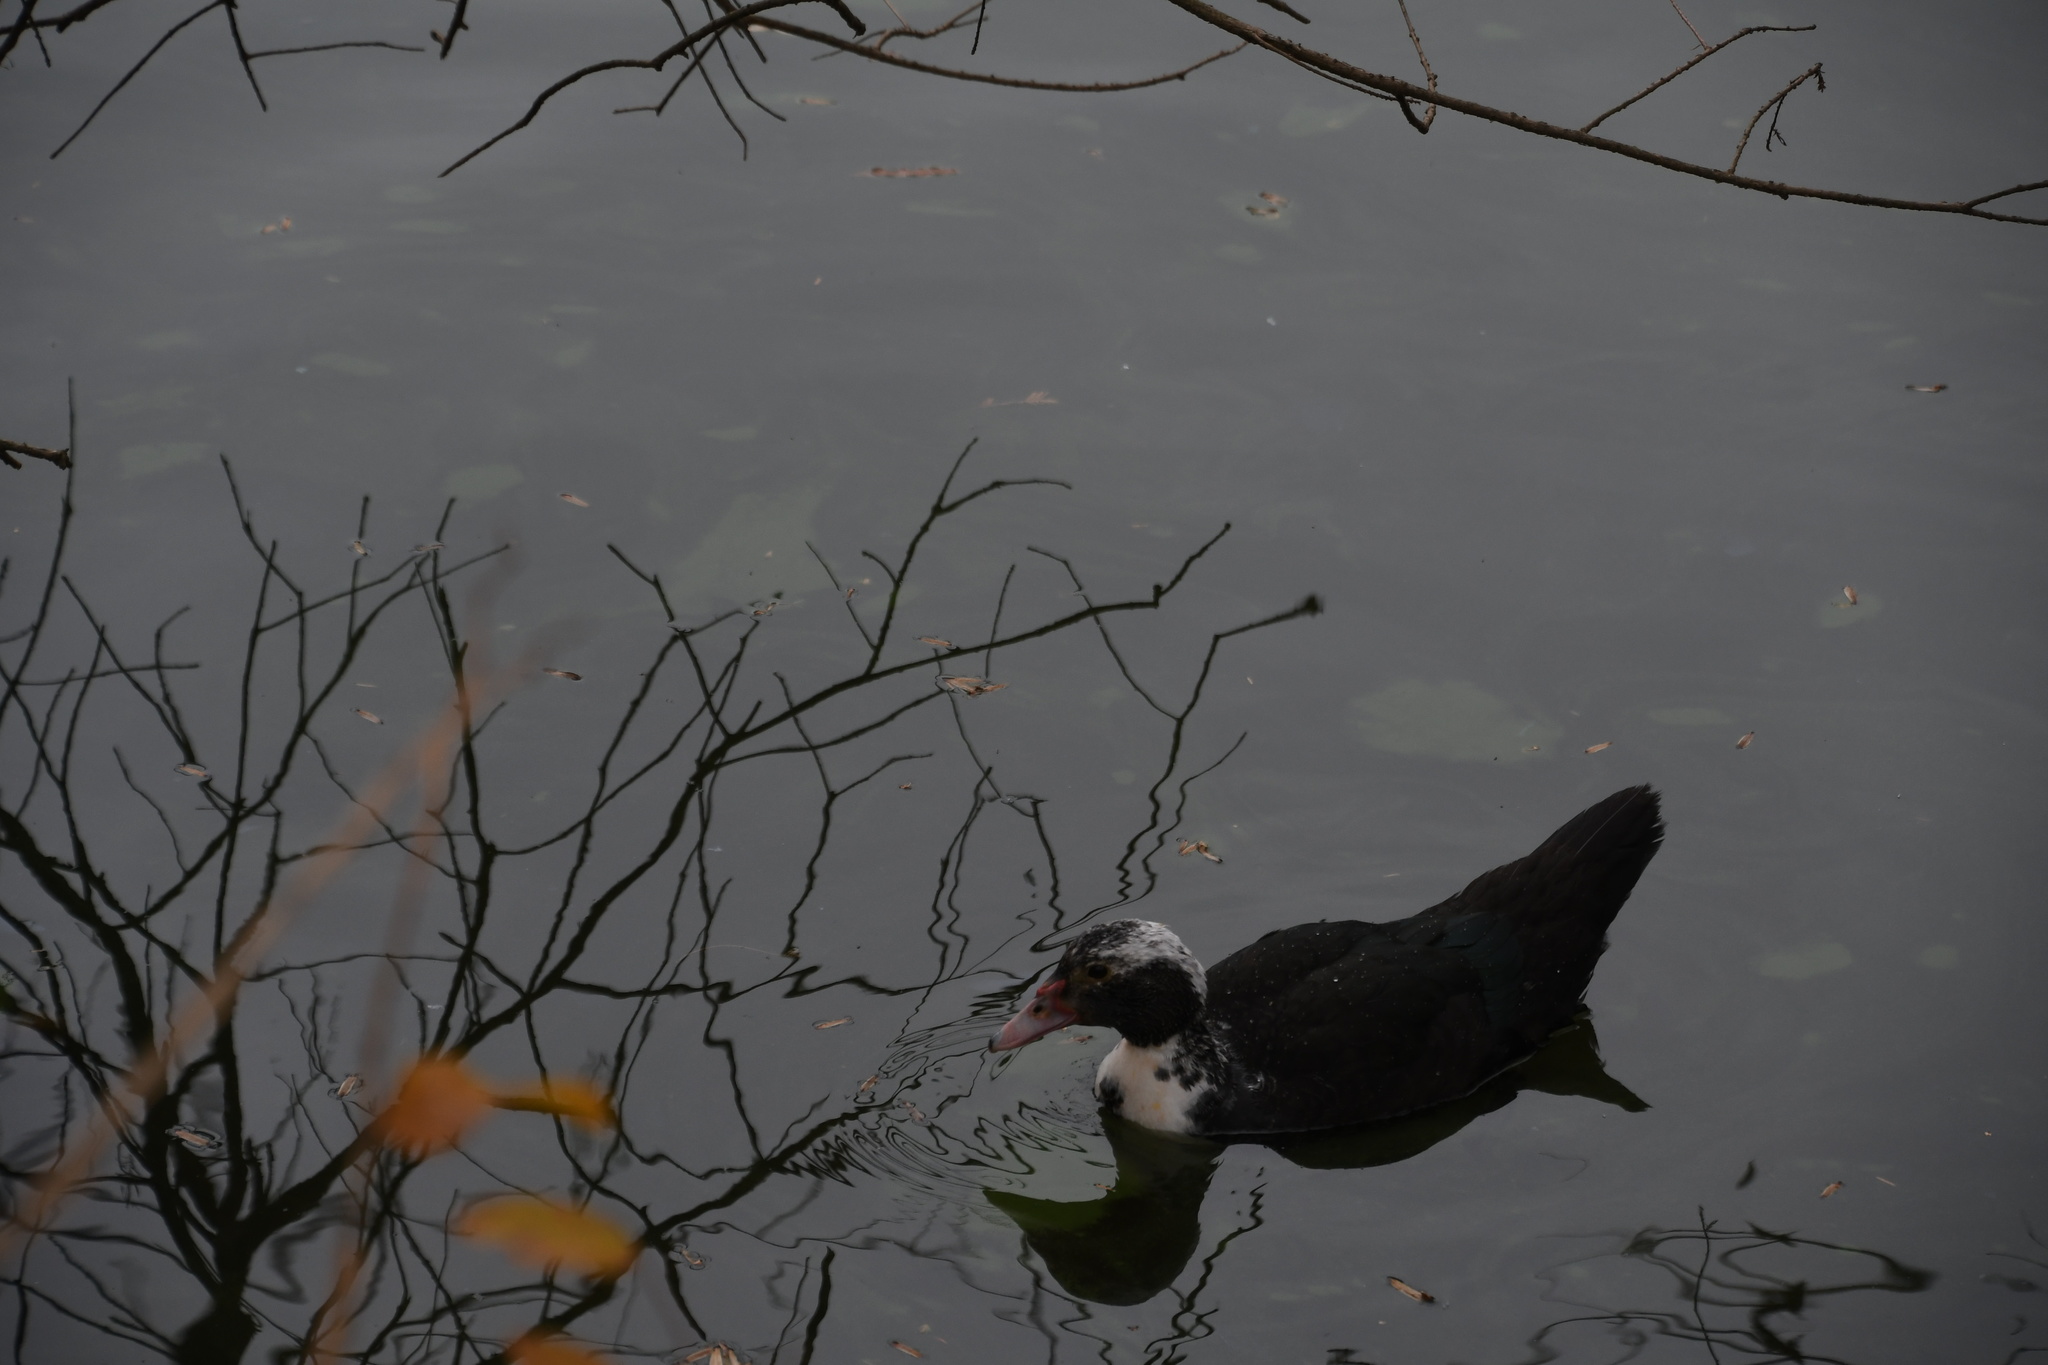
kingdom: Animalia
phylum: Chordata
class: Aves
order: Anseriformes
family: Anatidae
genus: Cairina
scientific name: Cairina moschata
